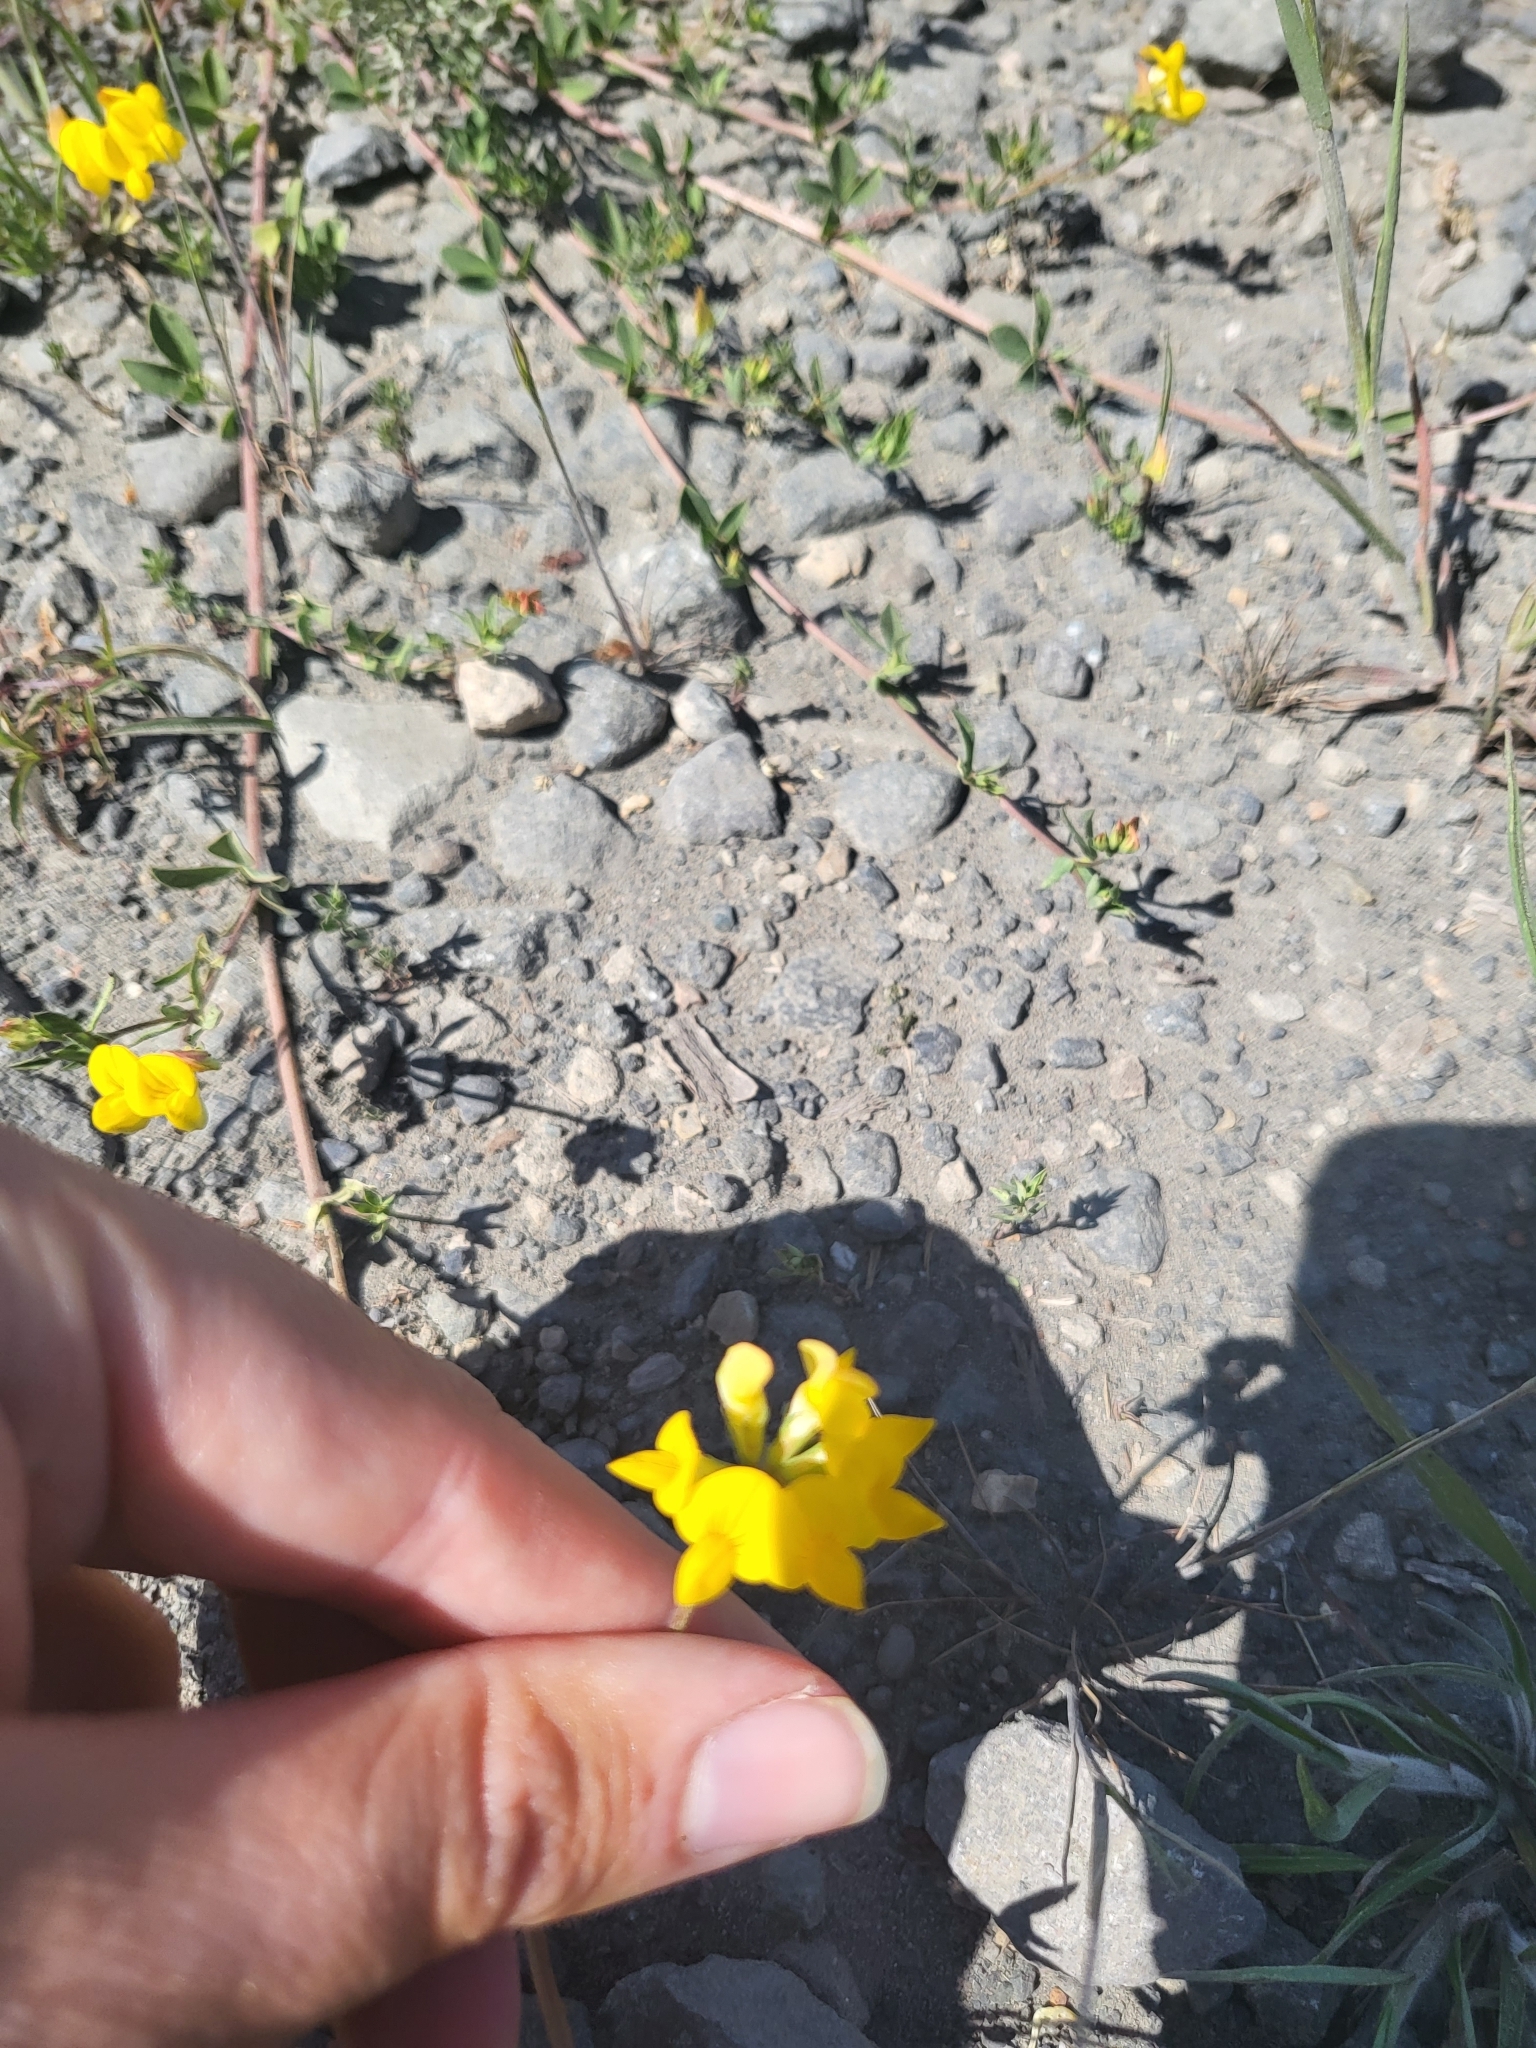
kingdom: Plantae
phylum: Tracheophyta
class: Magnoliopsida
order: Fabales
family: Fabaceae
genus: Lotus
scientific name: Lotus corniculatus
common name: Common bird's-foot-trefoil
